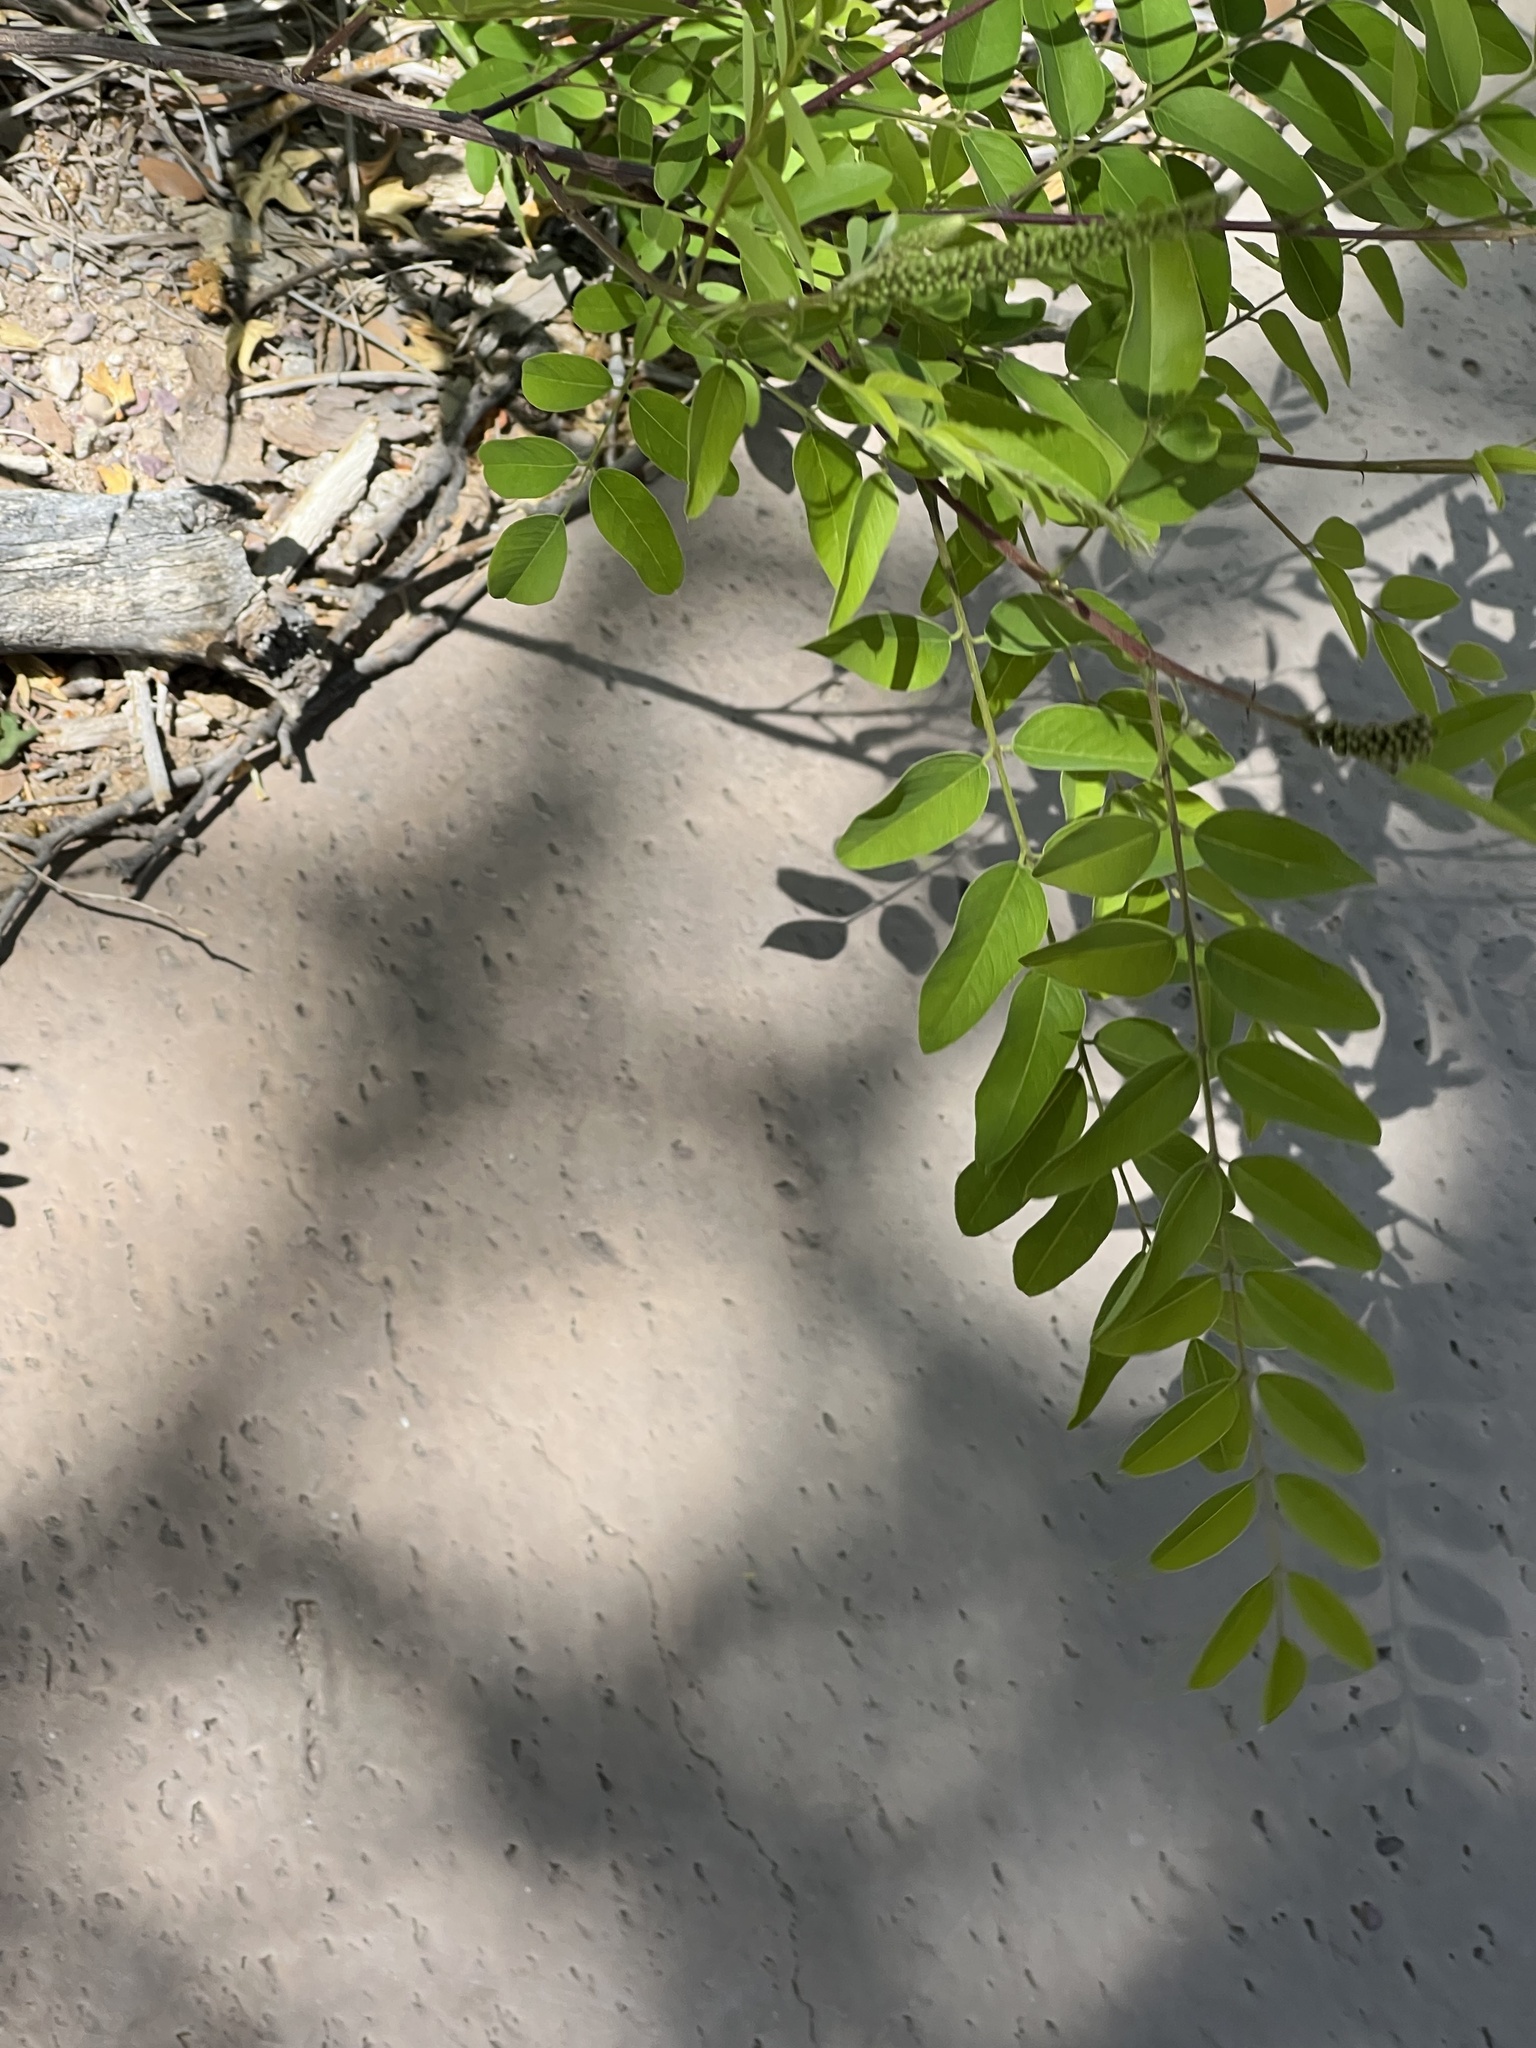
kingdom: Plantae
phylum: Tracheophyta
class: Magnoliopsida
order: Fabales
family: Fabaceae
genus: Amorpha
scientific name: Amorpha fruticosa
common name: False indigo
